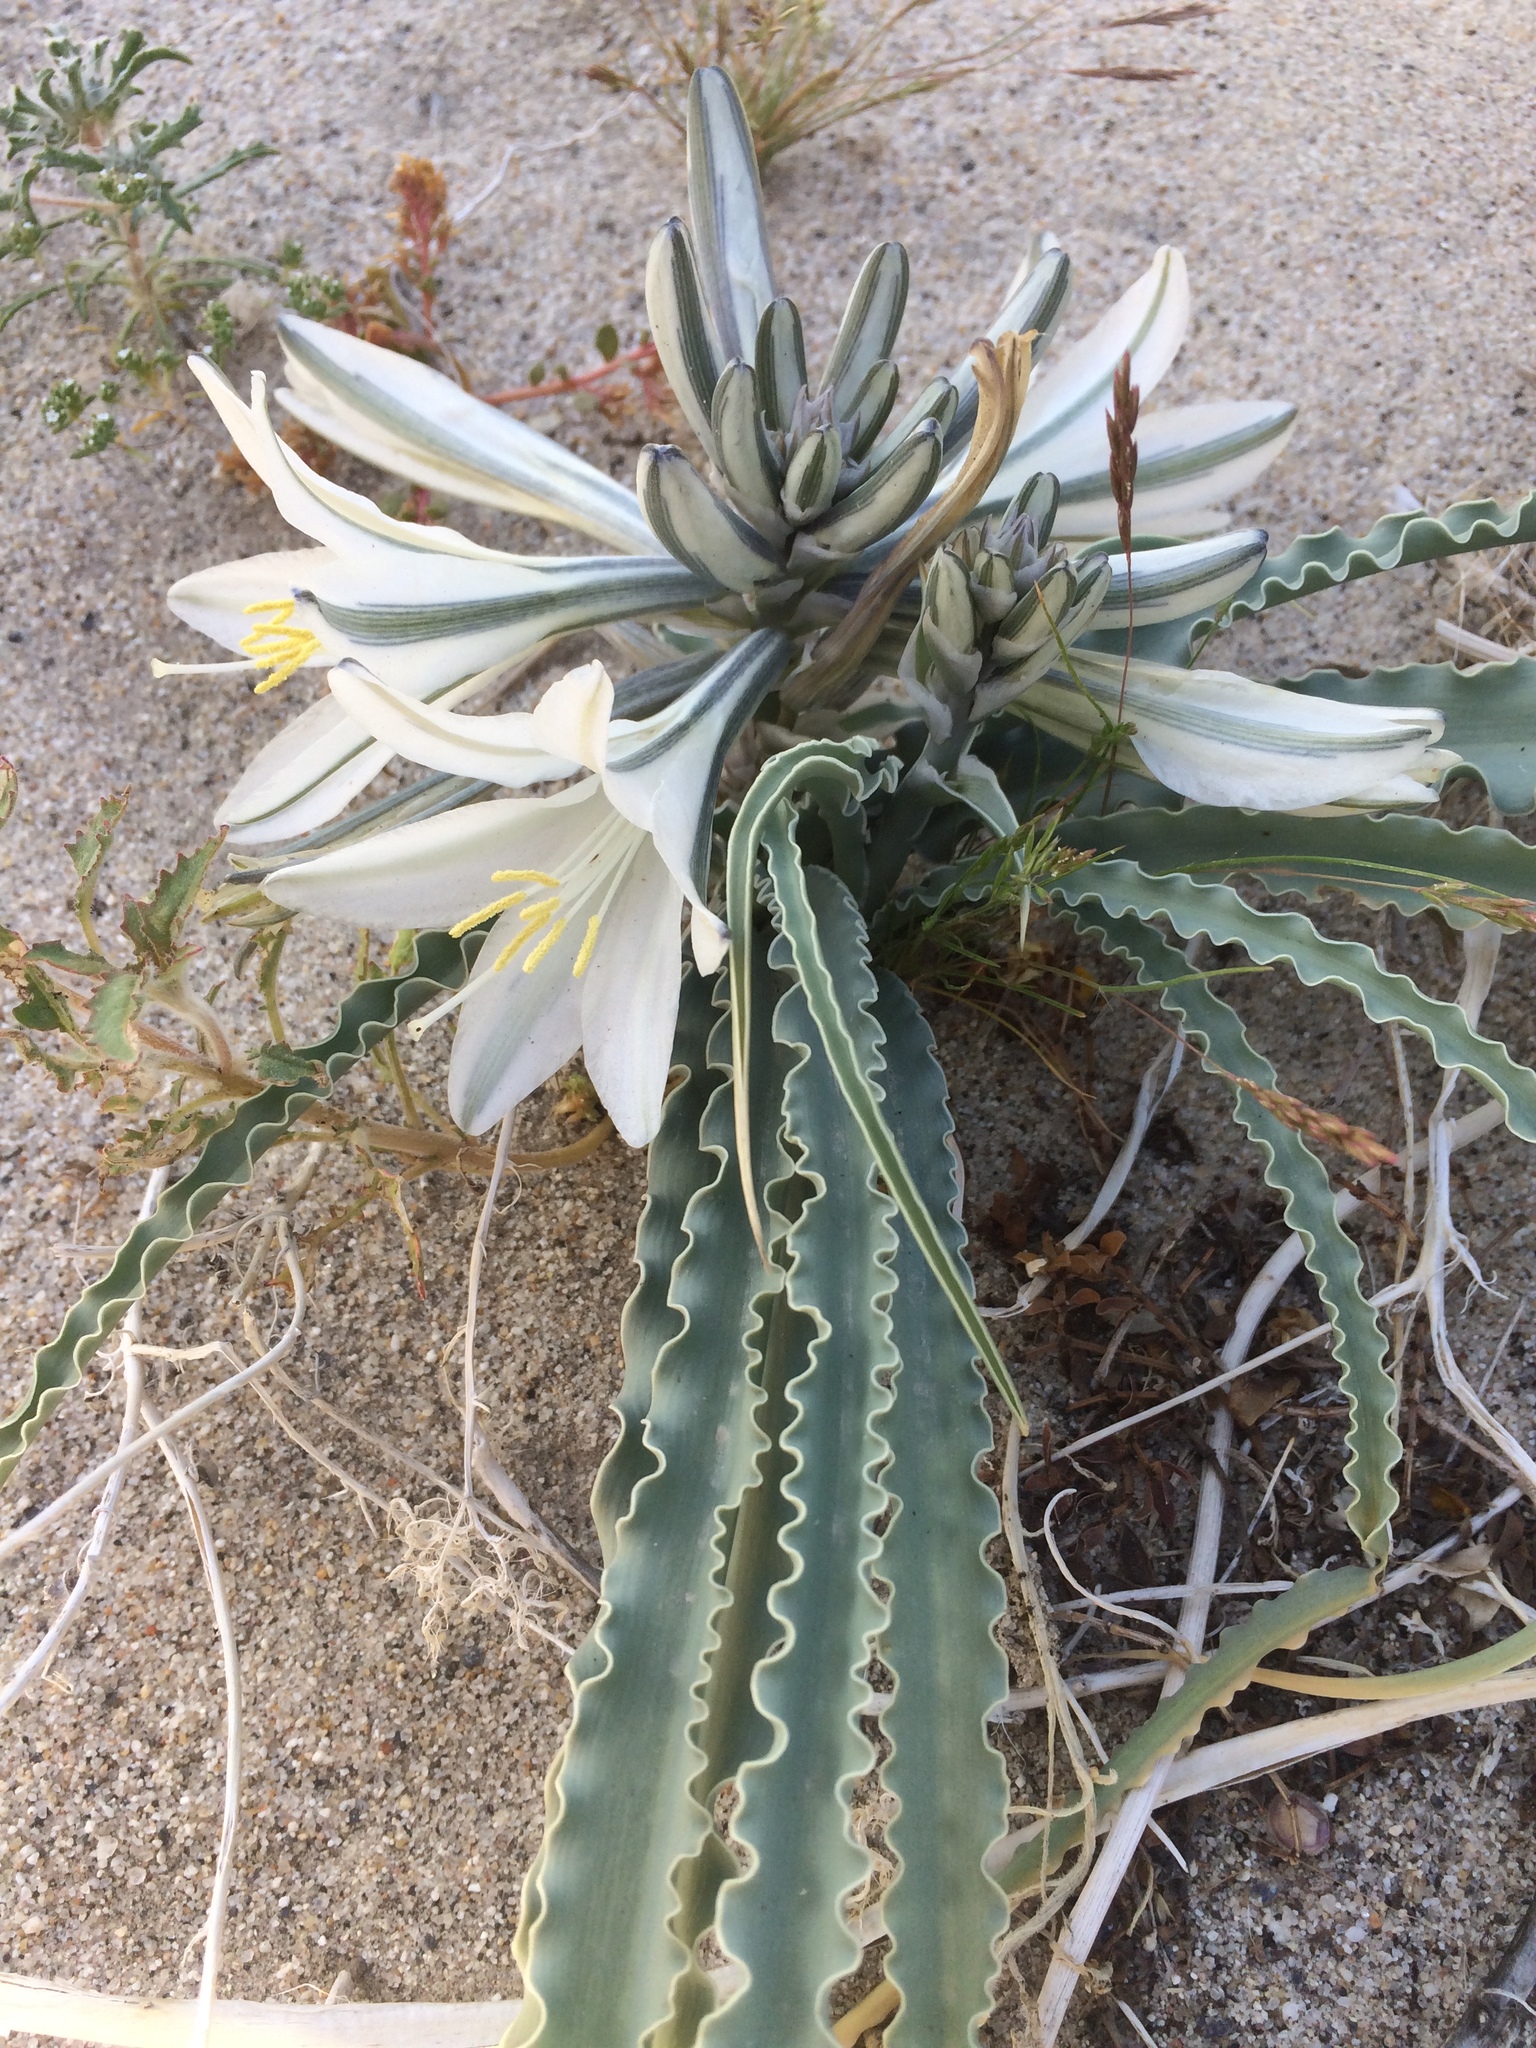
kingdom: Plantae
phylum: Tracheophyta
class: Liliopsida
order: Asparagales
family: Asparagaceae
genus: Hesperocallis
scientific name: Hesperocallis undulata
